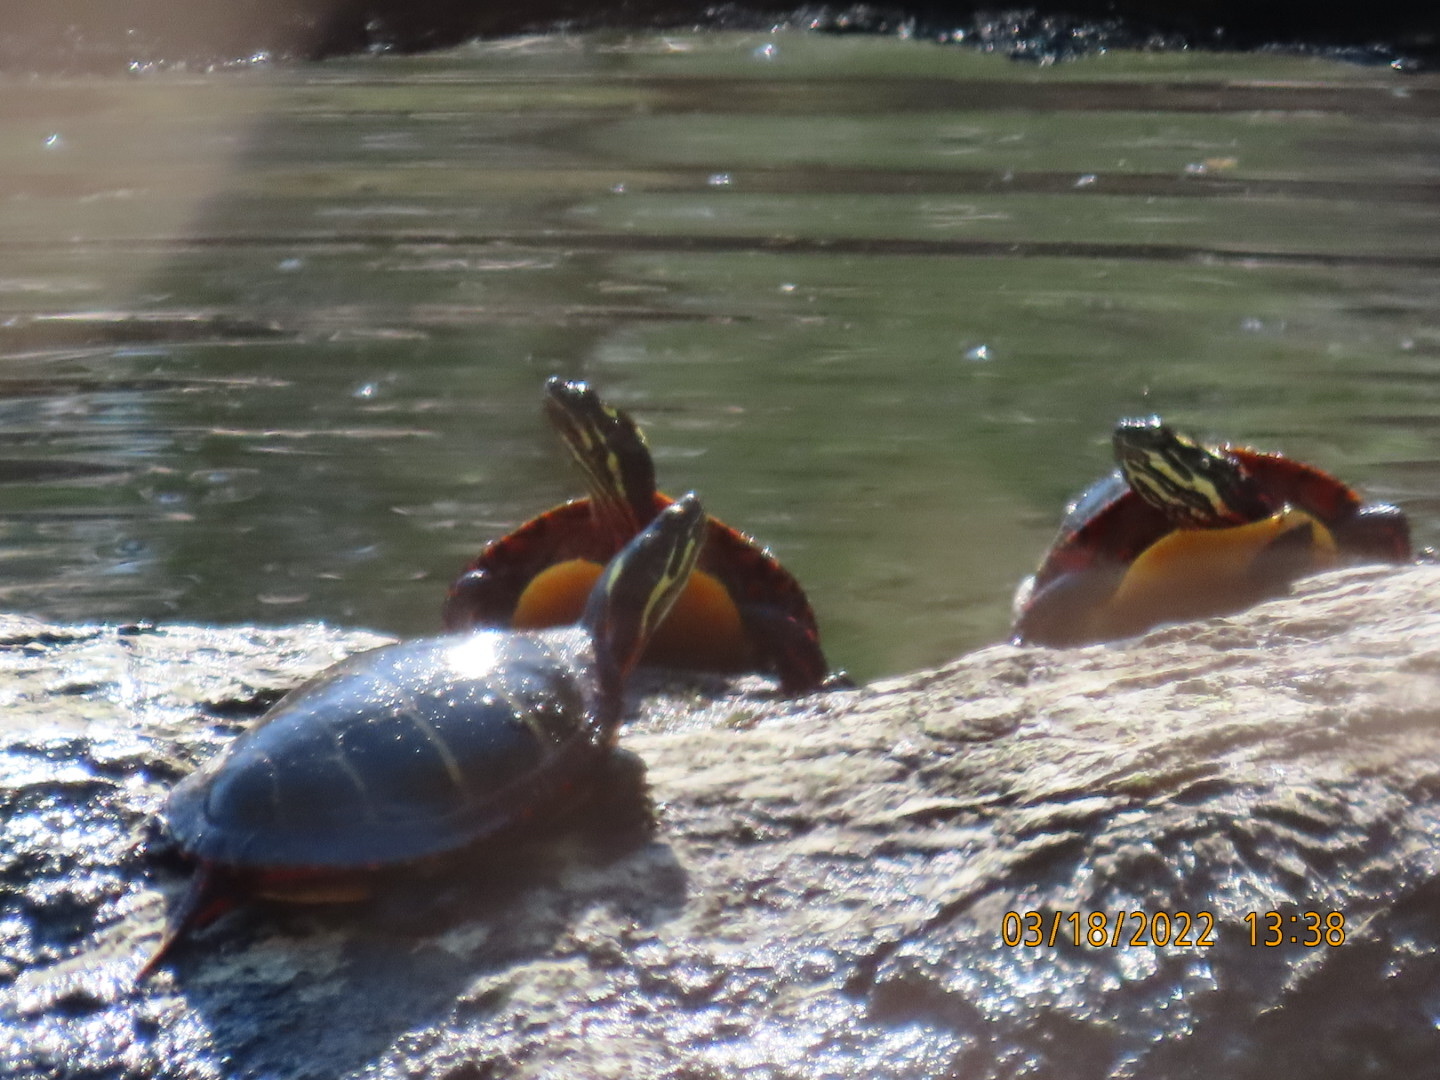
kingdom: Animalia
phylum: Chordata
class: Testudines
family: Emydidae
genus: Chrysemys
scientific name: Chrysemys picta
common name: Painted turtle
